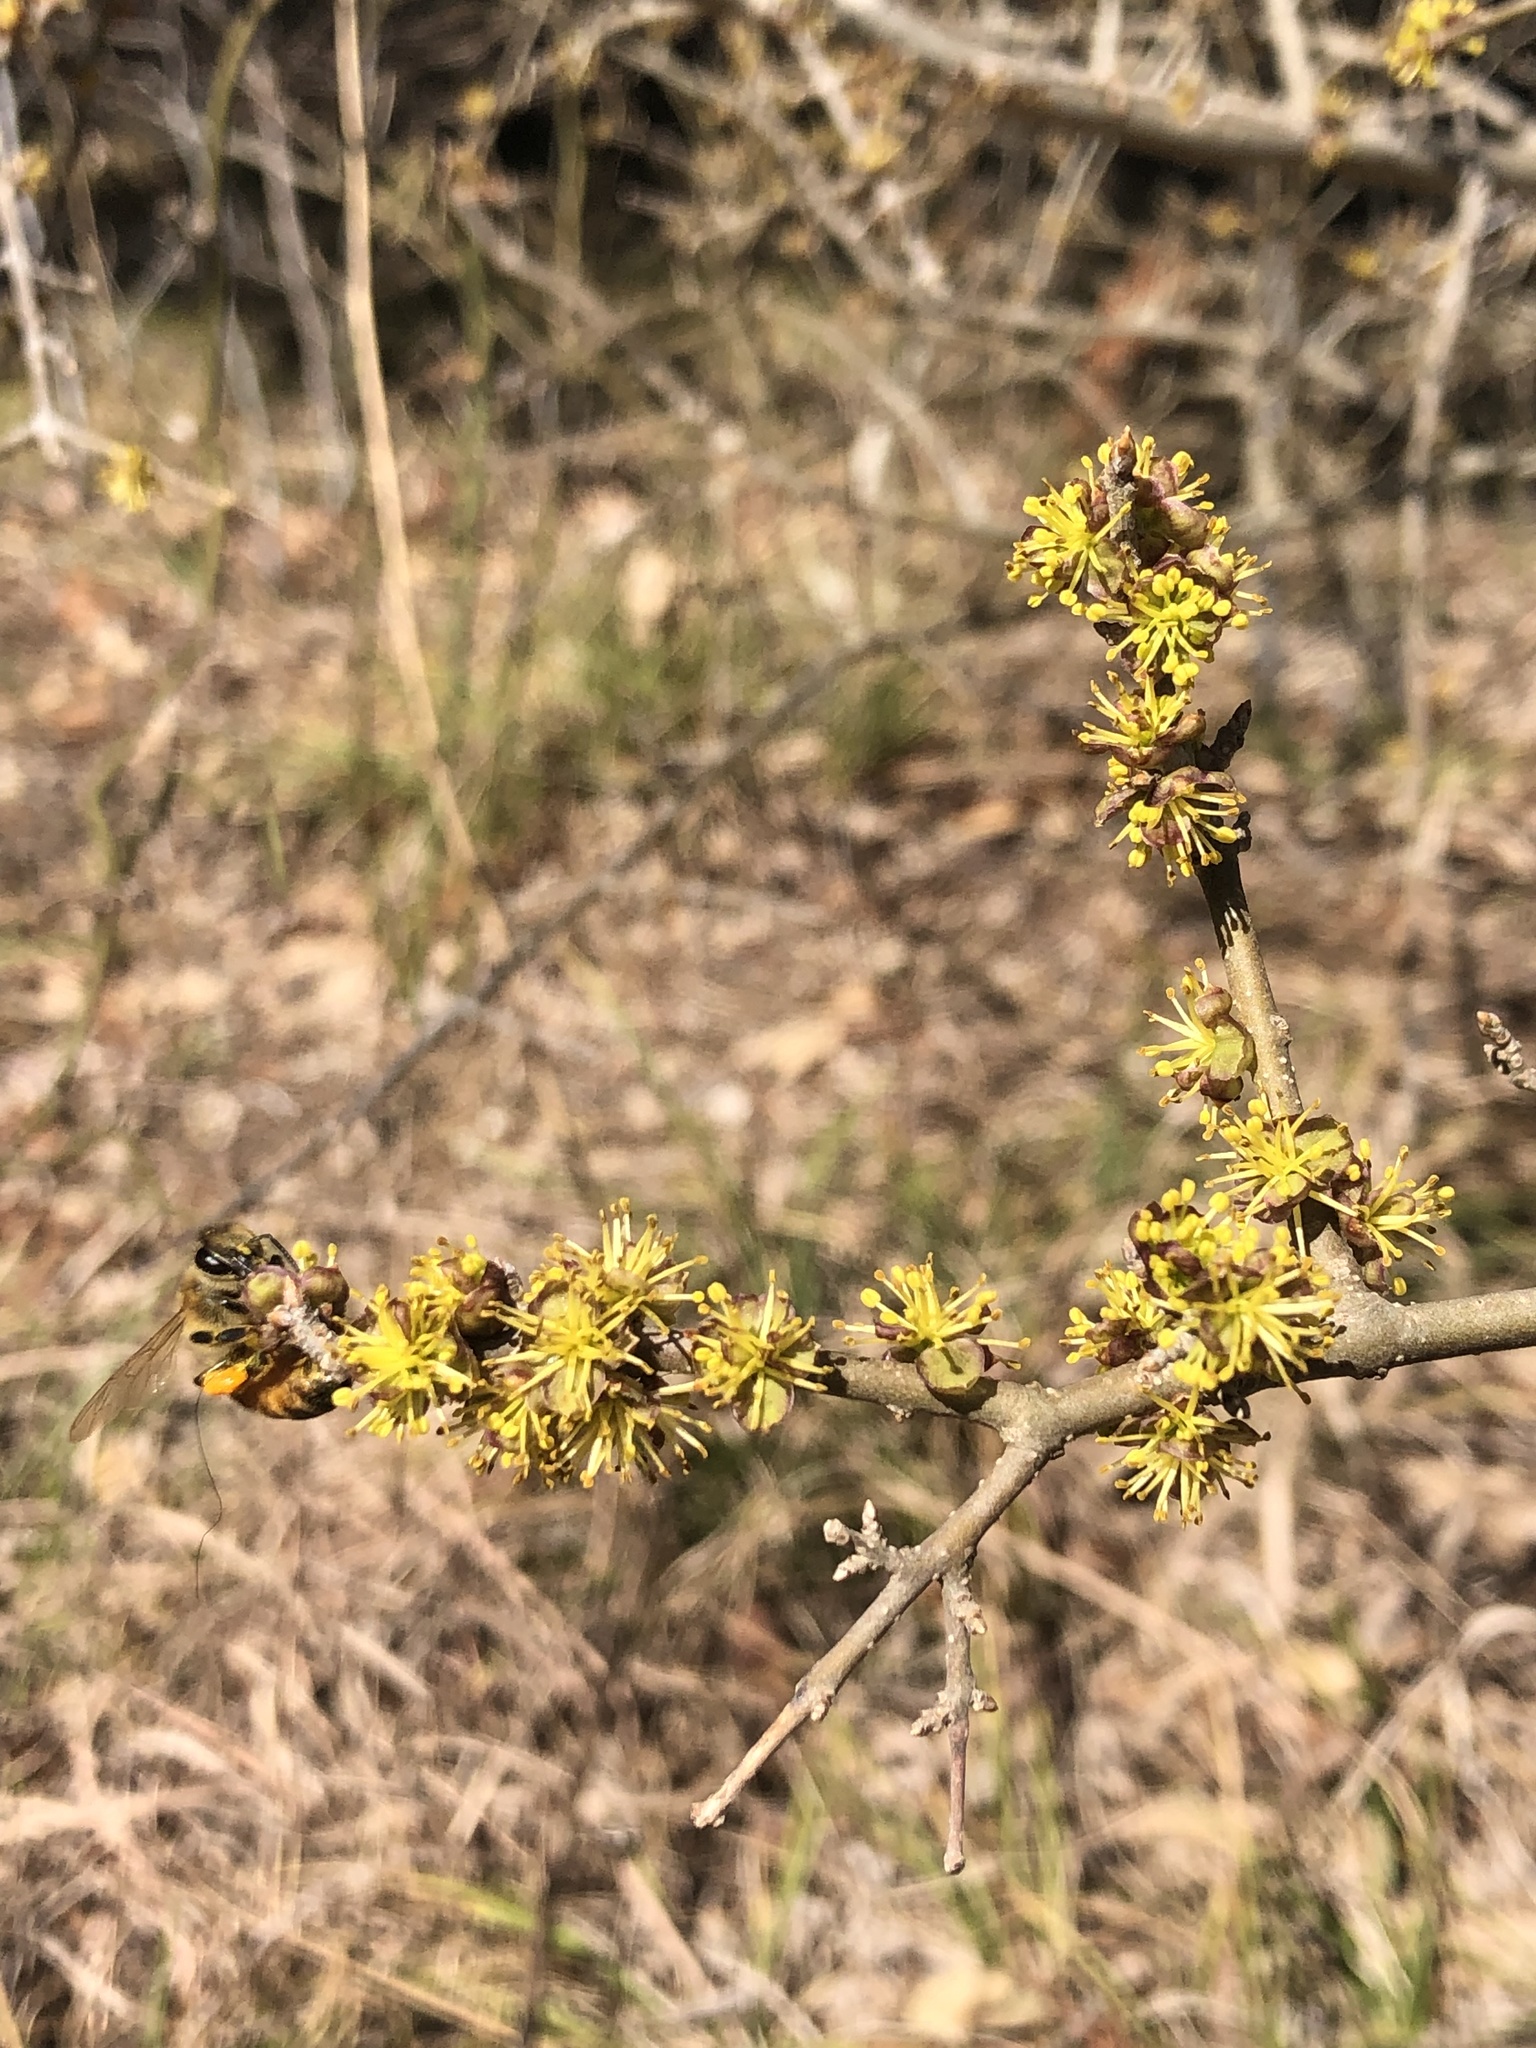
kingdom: Plantae
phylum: Tracheophyta
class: Magnoliopsida
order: Lamiales
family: Oleaceae
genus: Forestiera
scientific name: Forestiera pubescens
